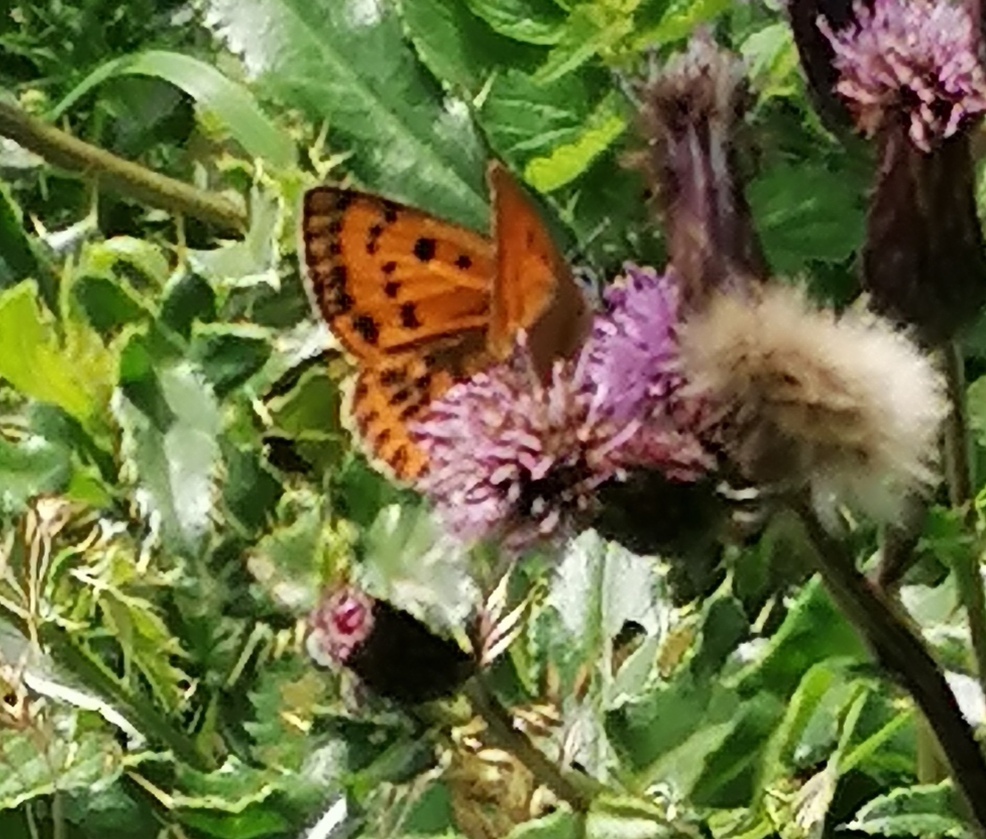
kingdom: Animalia
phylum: Arthropoda
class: Insecta
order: Lepidoptera
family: Lycaenidae
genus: Lycaena
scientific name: Lycaena virgaureae
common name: Scarce copper
